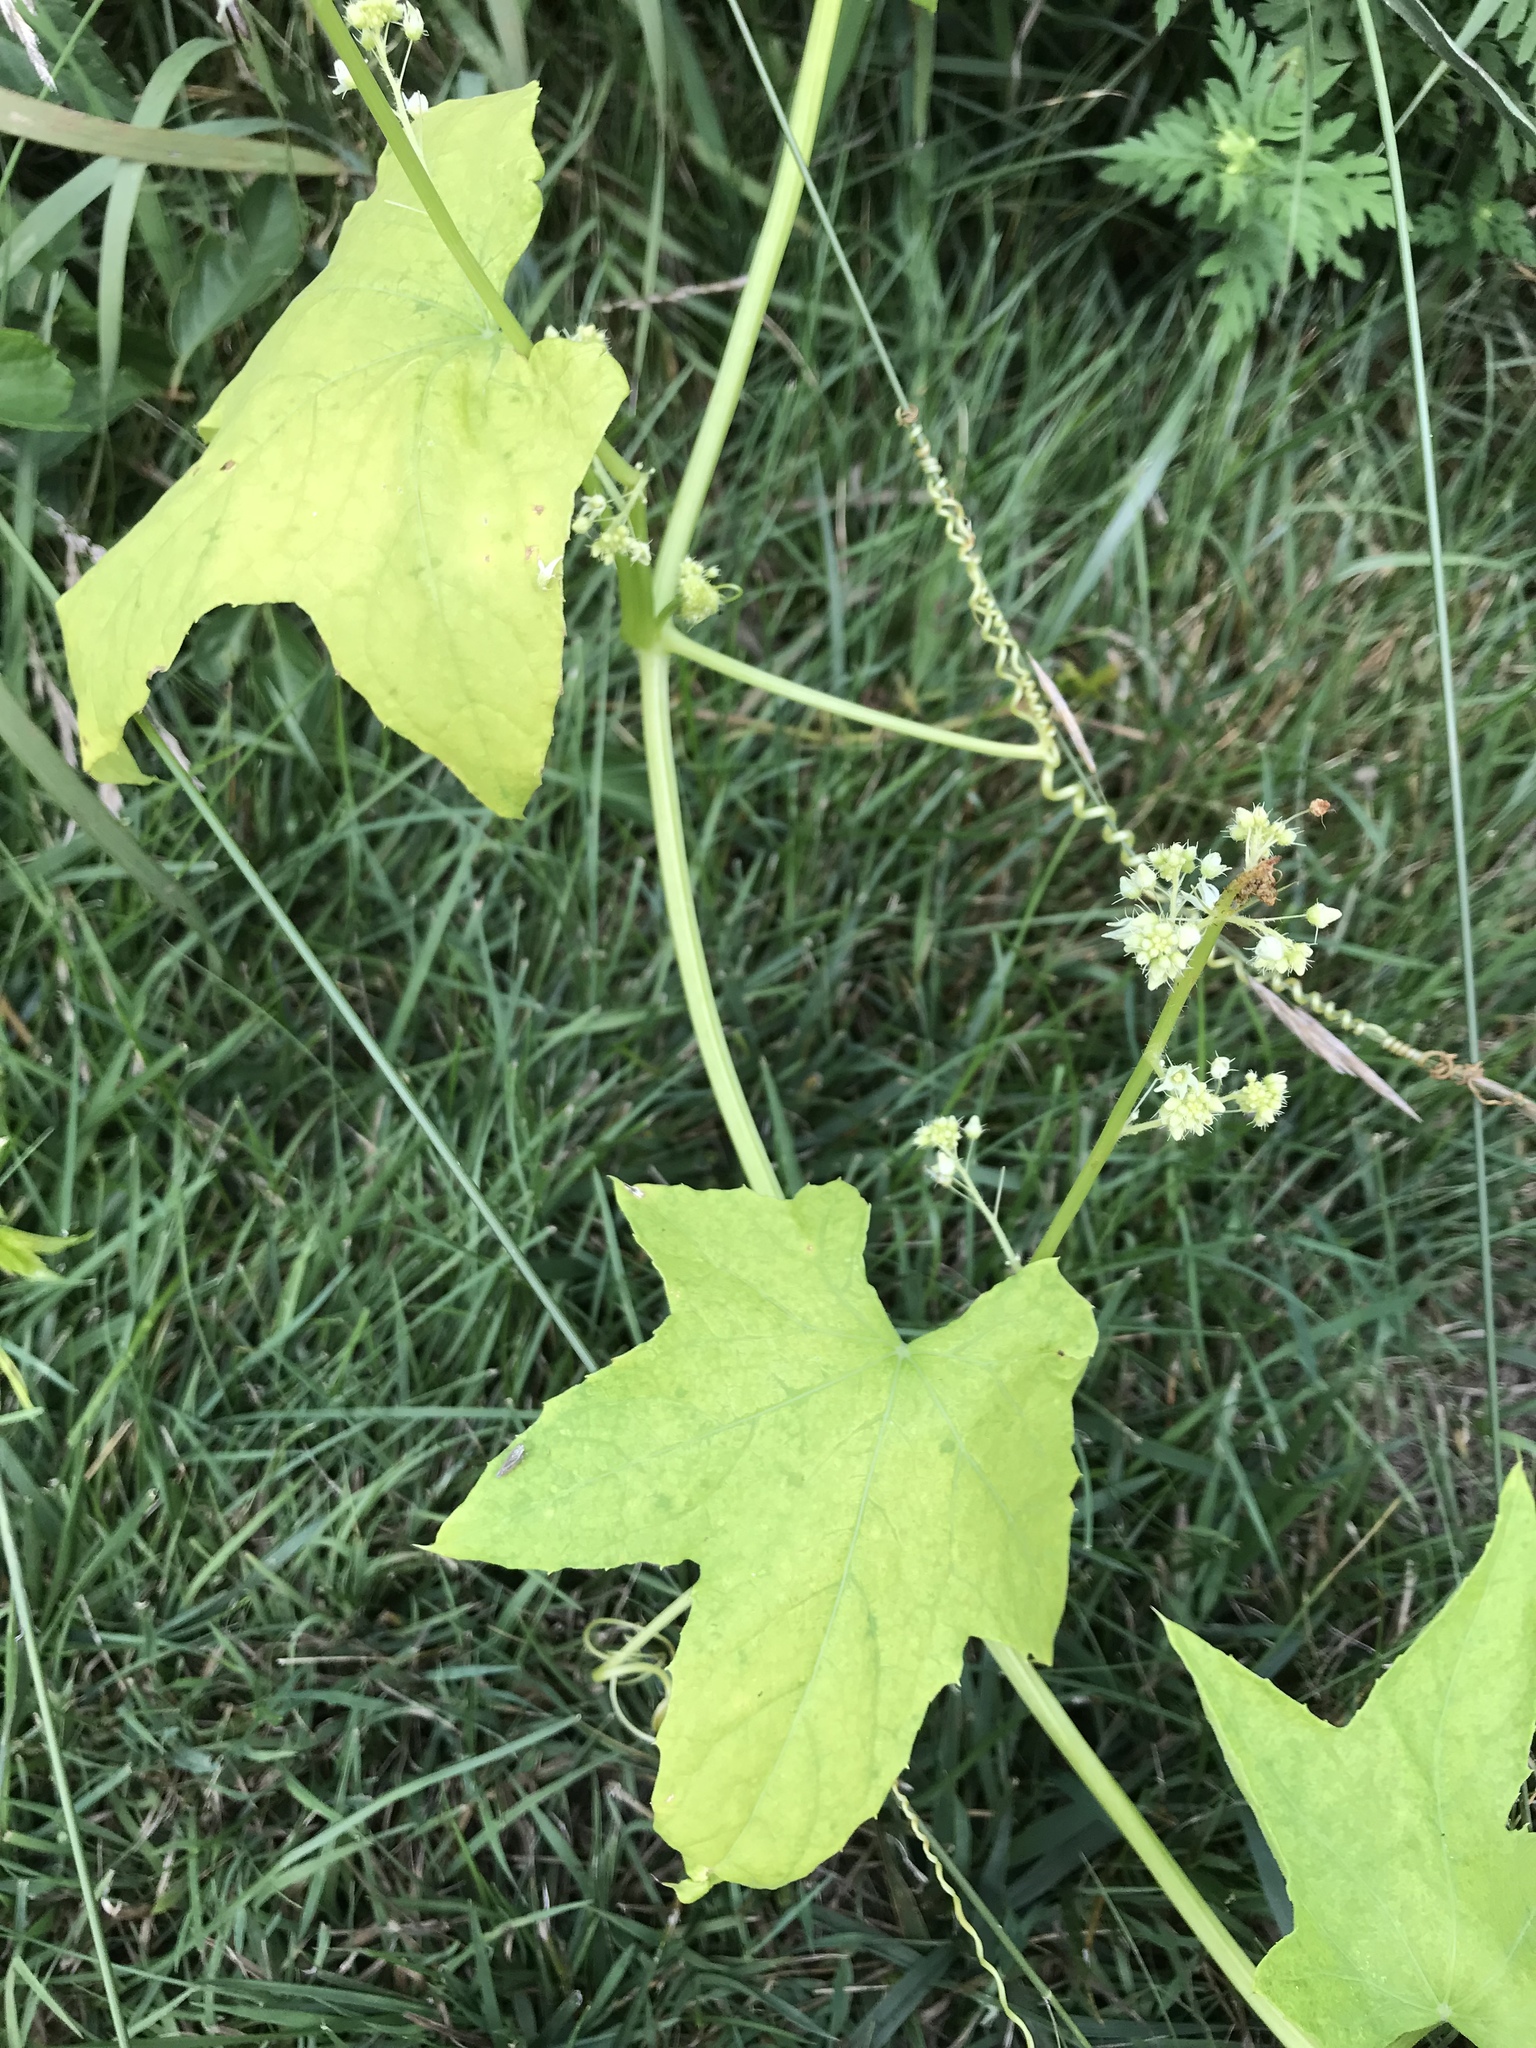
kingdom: Plantae
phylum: Tracheophyta
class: Magnoliopsida
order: Cucurbitales
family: Cucurbitaceae
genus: Echinocystis
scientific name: Echinocystis lobata
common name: Wild cucumber
